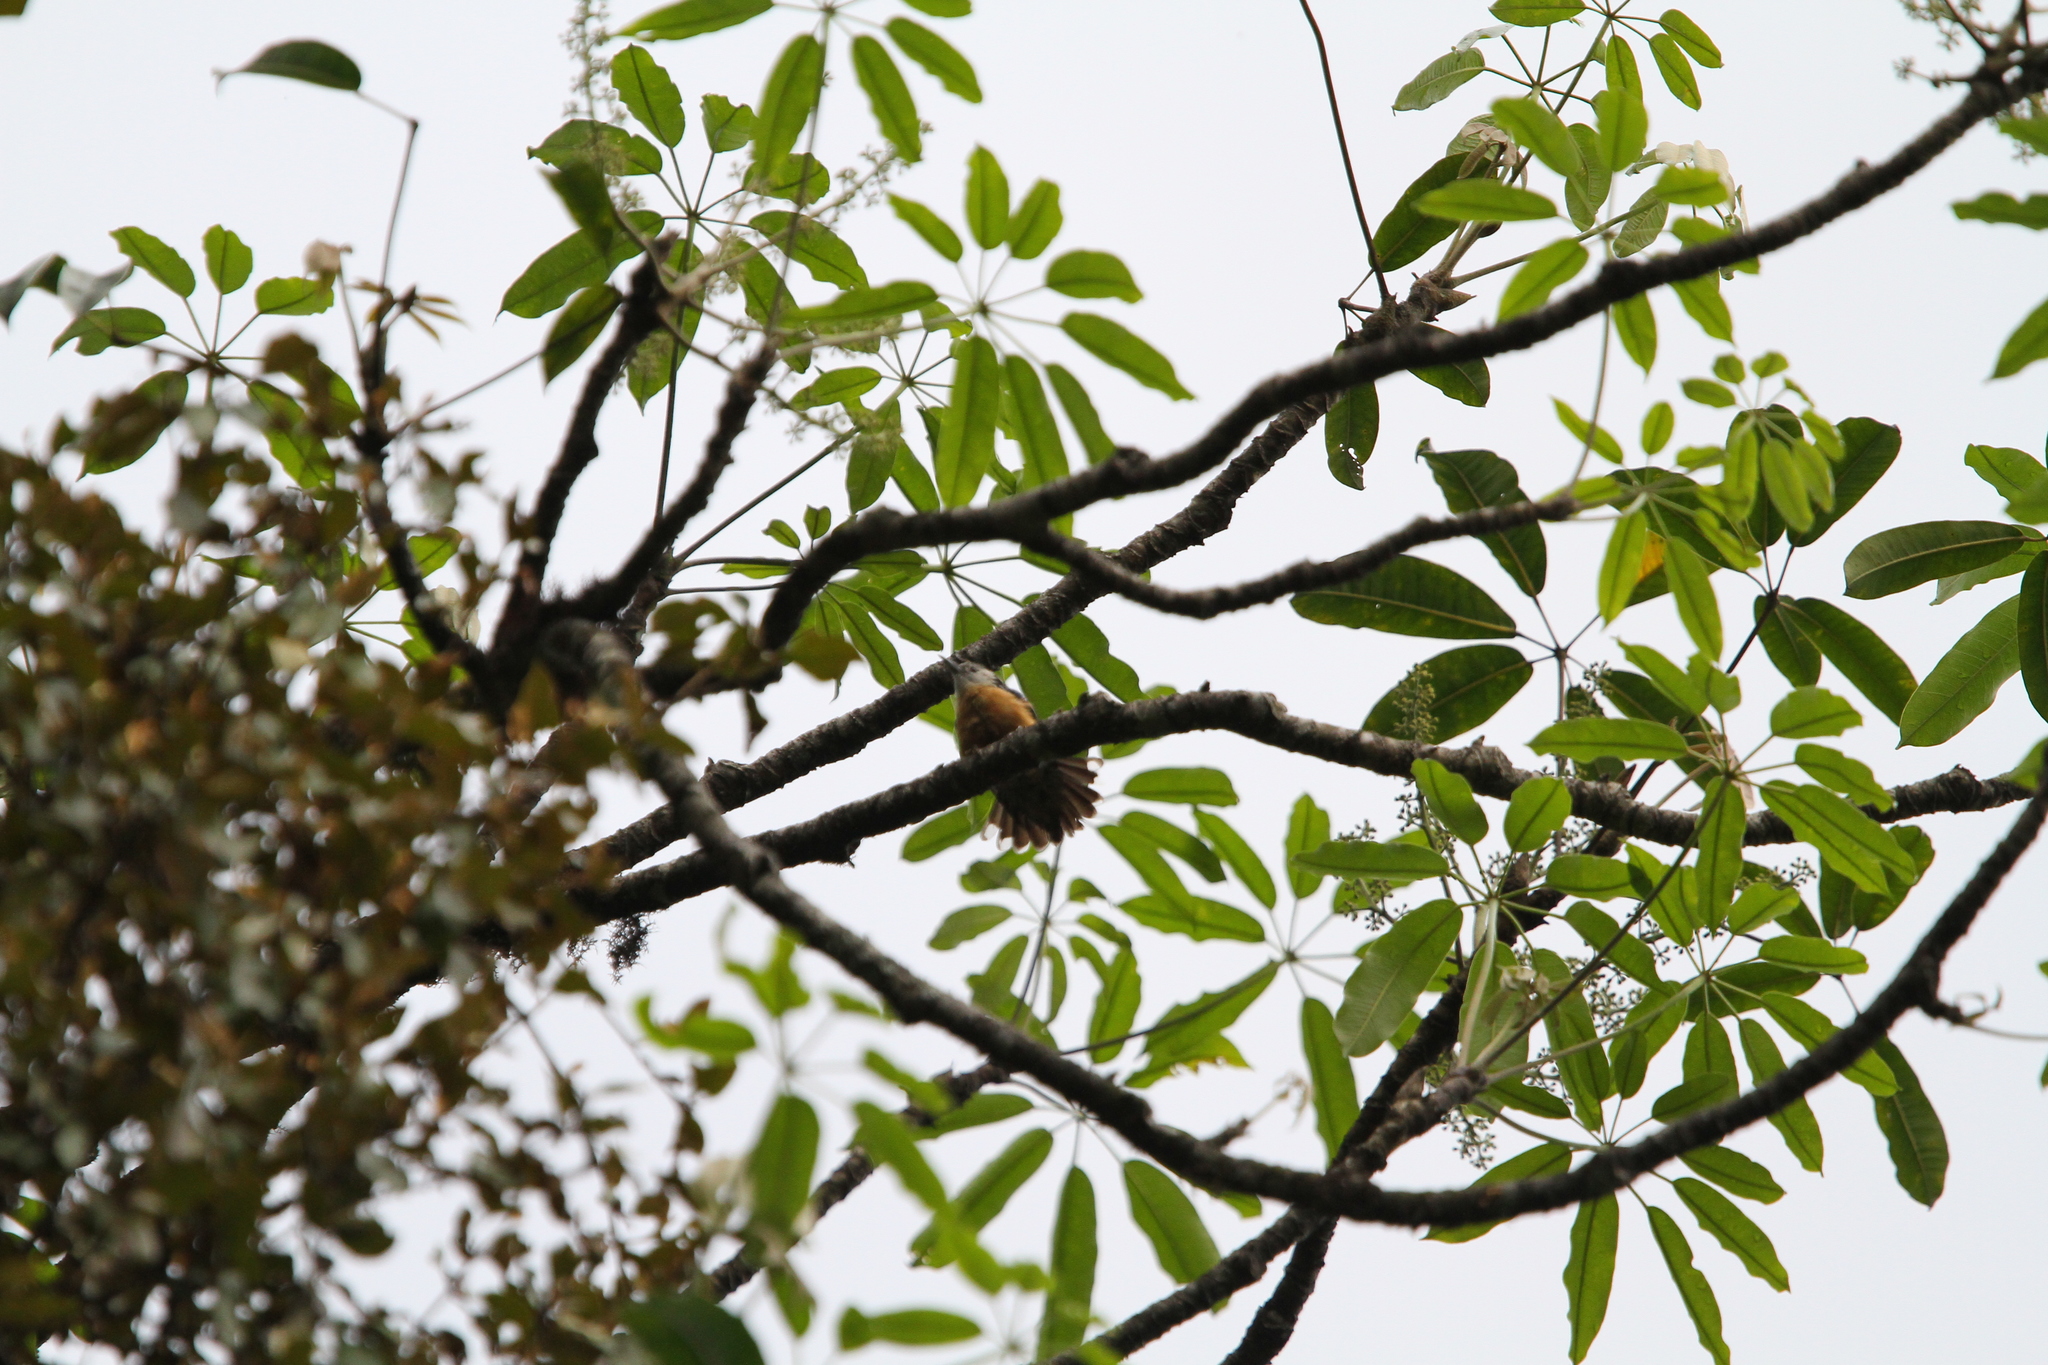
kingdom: Animalia
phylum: Chordata
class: Aves
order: Passeriformes
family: Sittidae
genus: Sitta
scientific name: Sitta formosa
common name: Beautiful nuthatch
